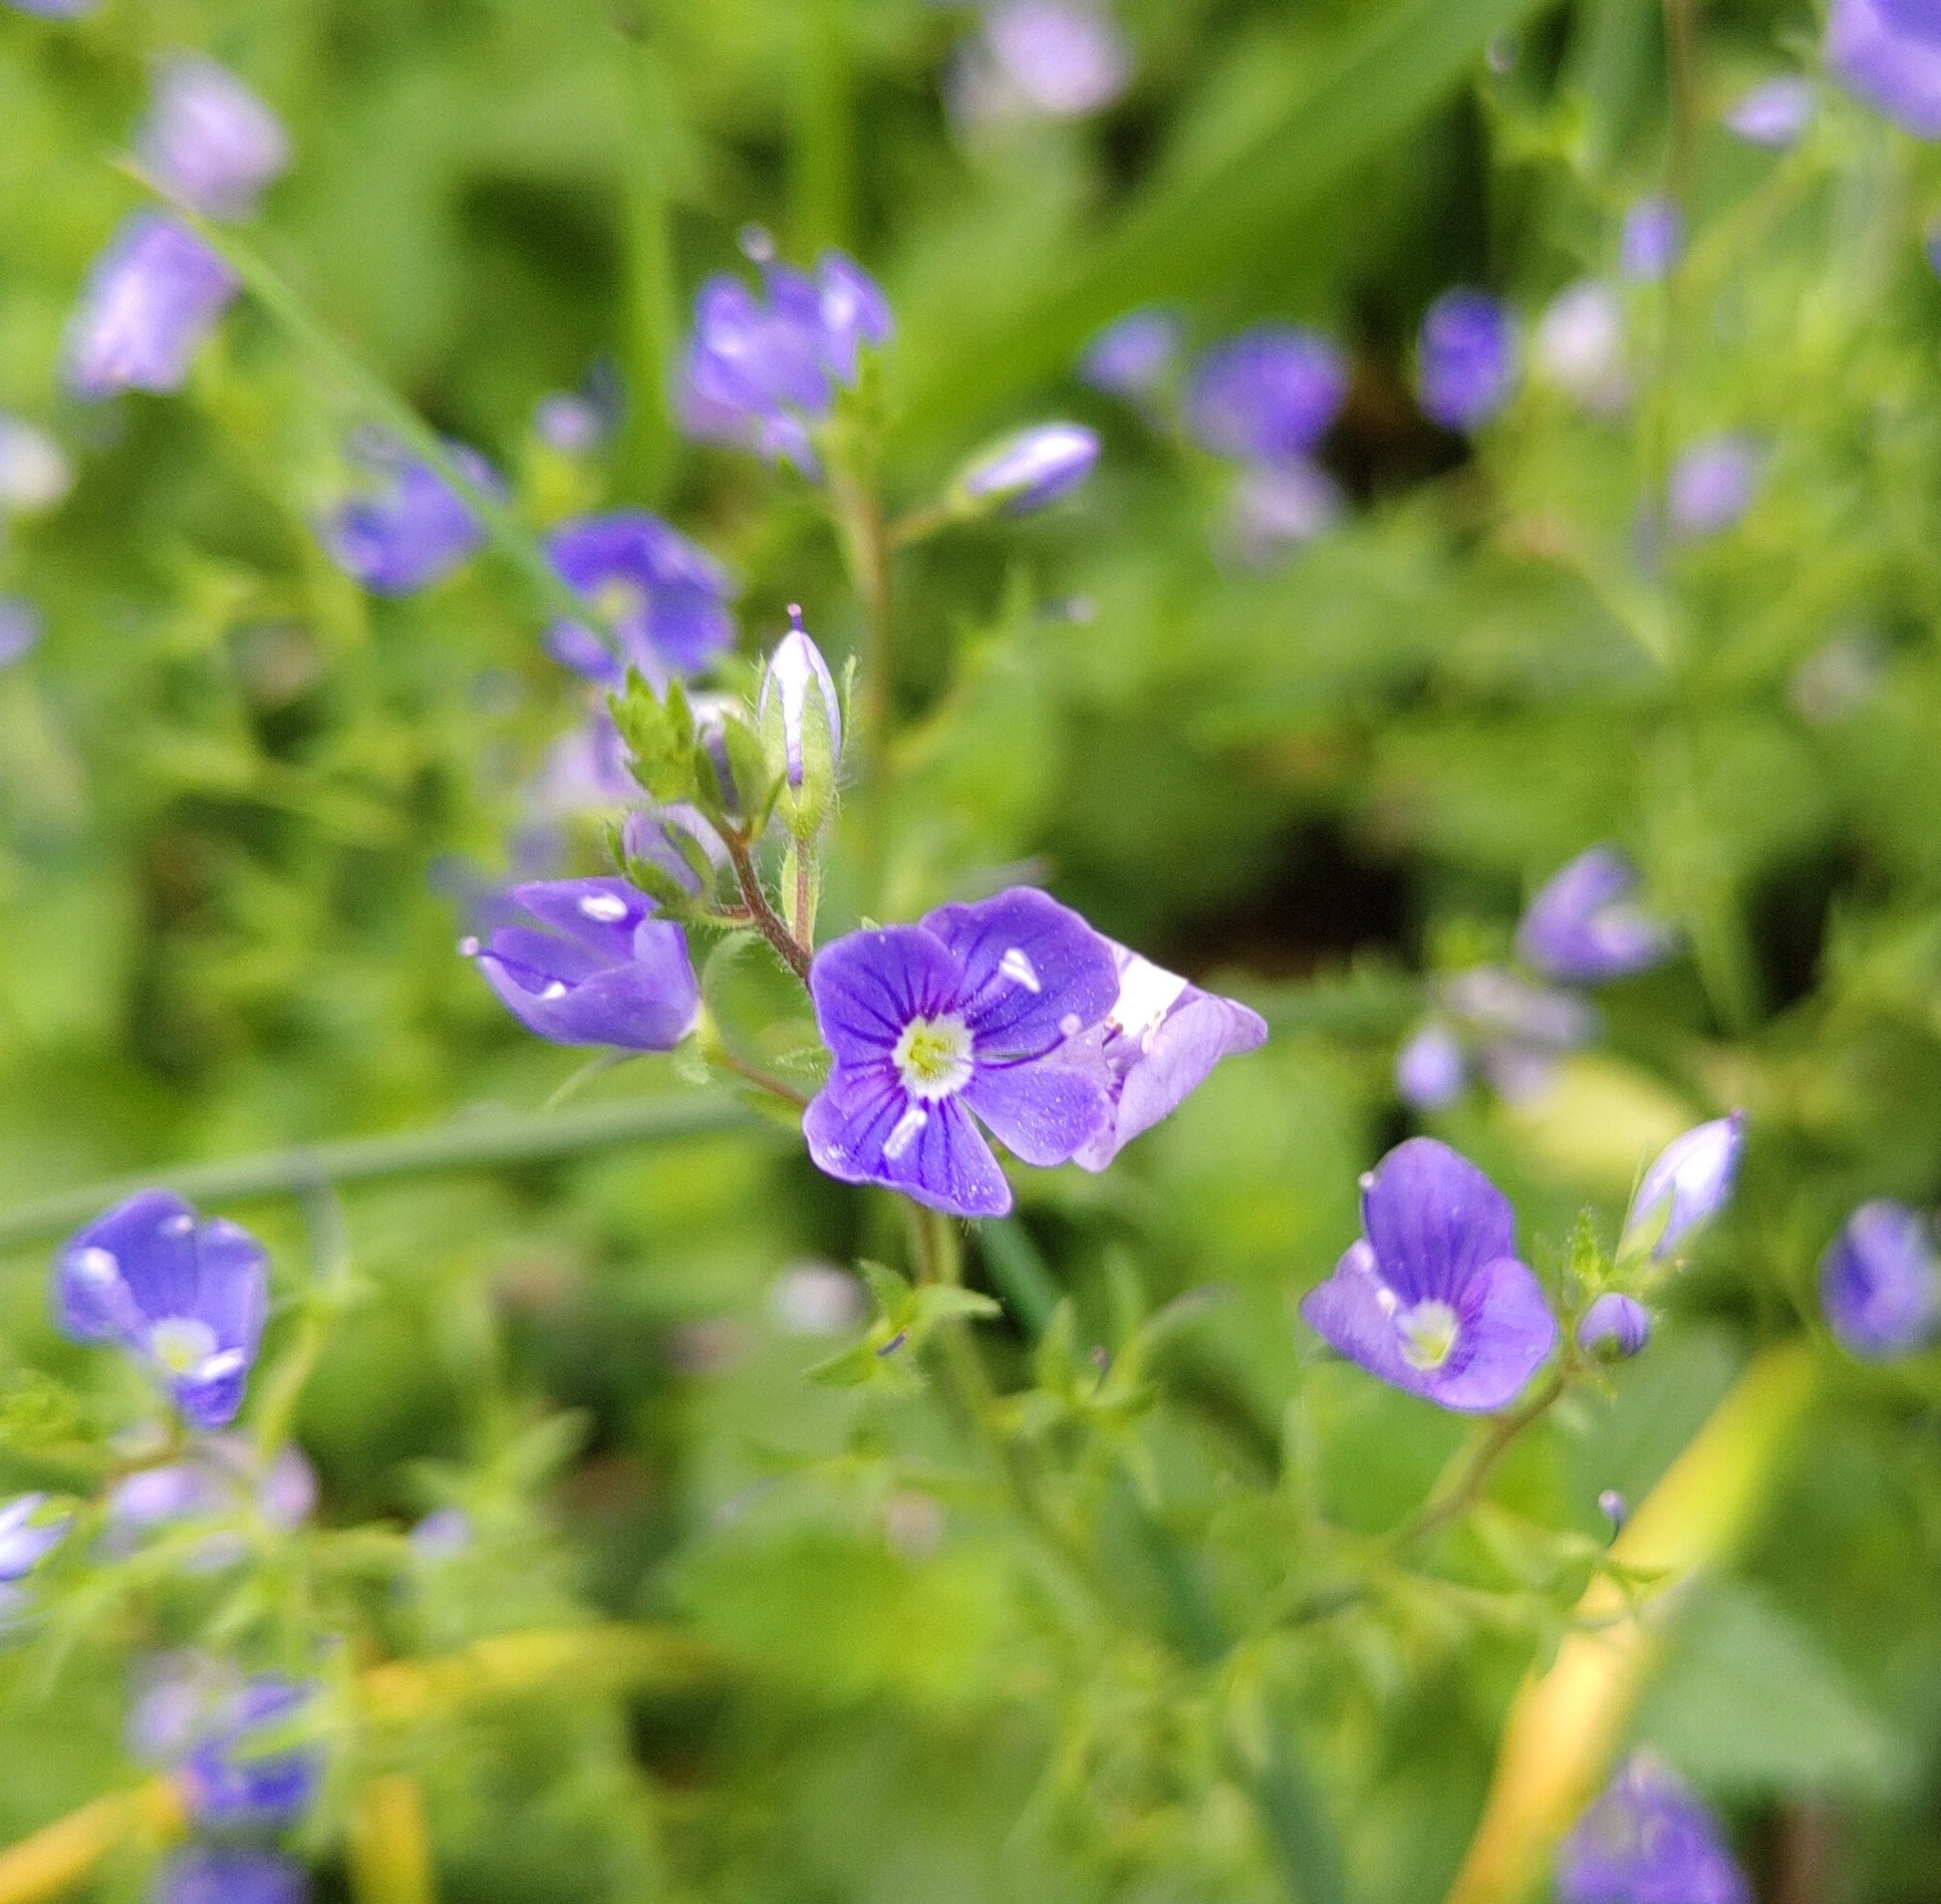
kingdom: Plantae
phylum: Tracheophyta
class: Magnoliopsida
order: Lamiales
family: Plantaginaceae
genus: Veronica
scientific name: Veronica chamaedrys
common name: Germander speedwell
